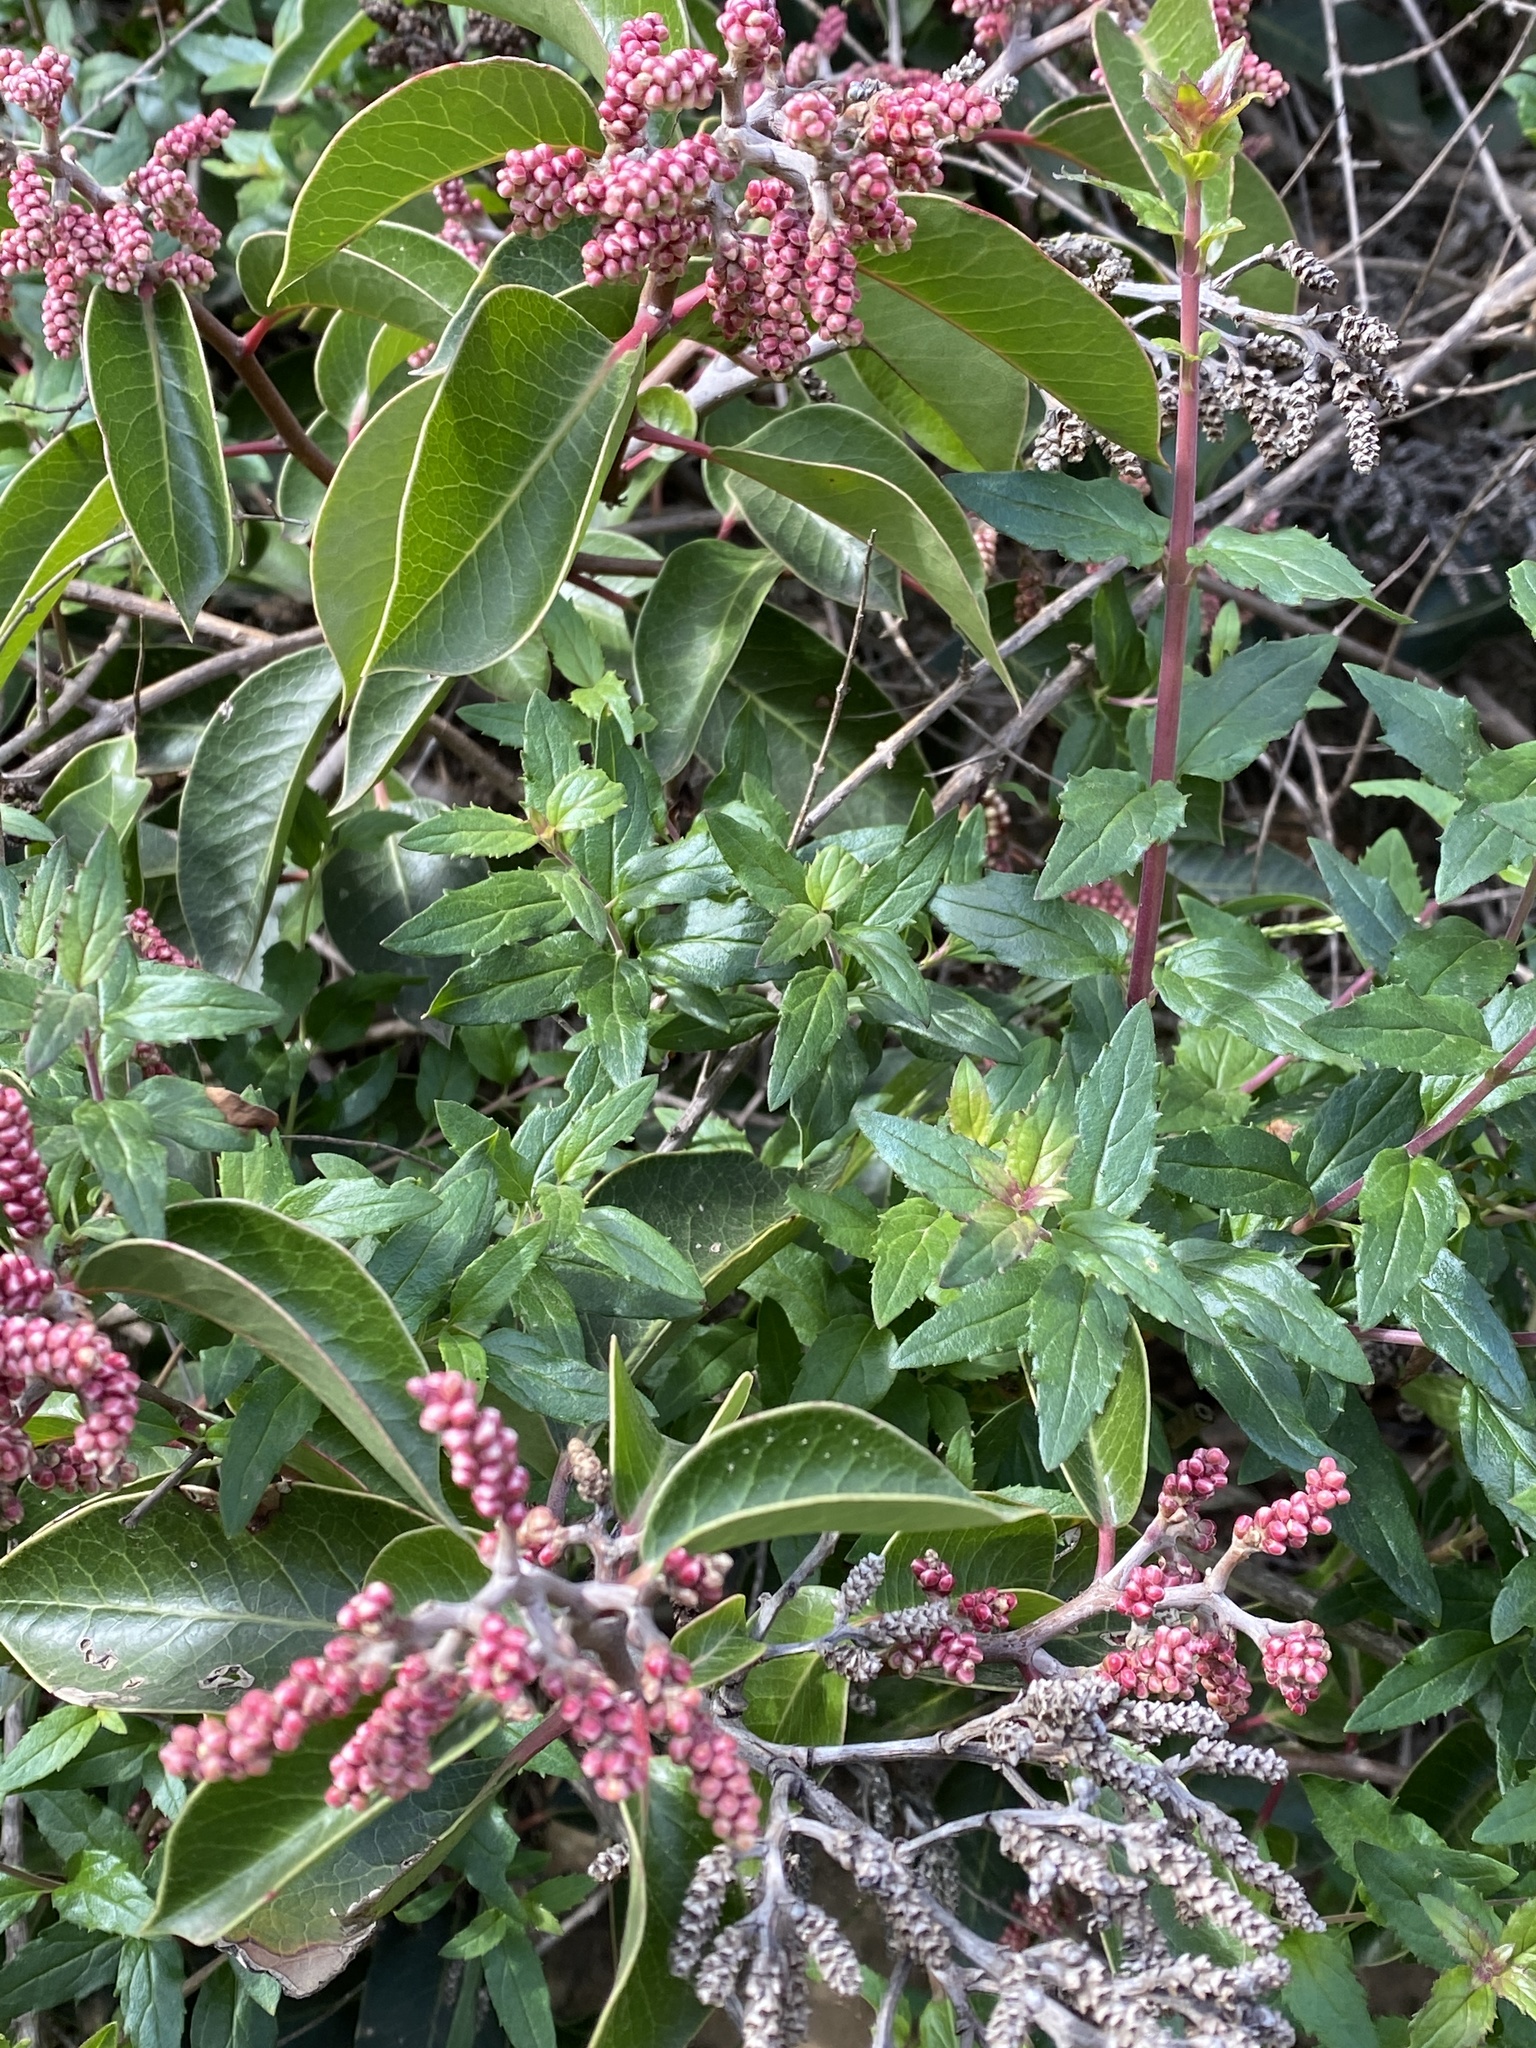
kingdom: Plantae
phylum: Tracheophyta
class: Magnoliopsida
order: Sapindales
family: Anacardiaceae
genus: Rhus
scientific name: Rhus ovata
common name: Sugar sumac
